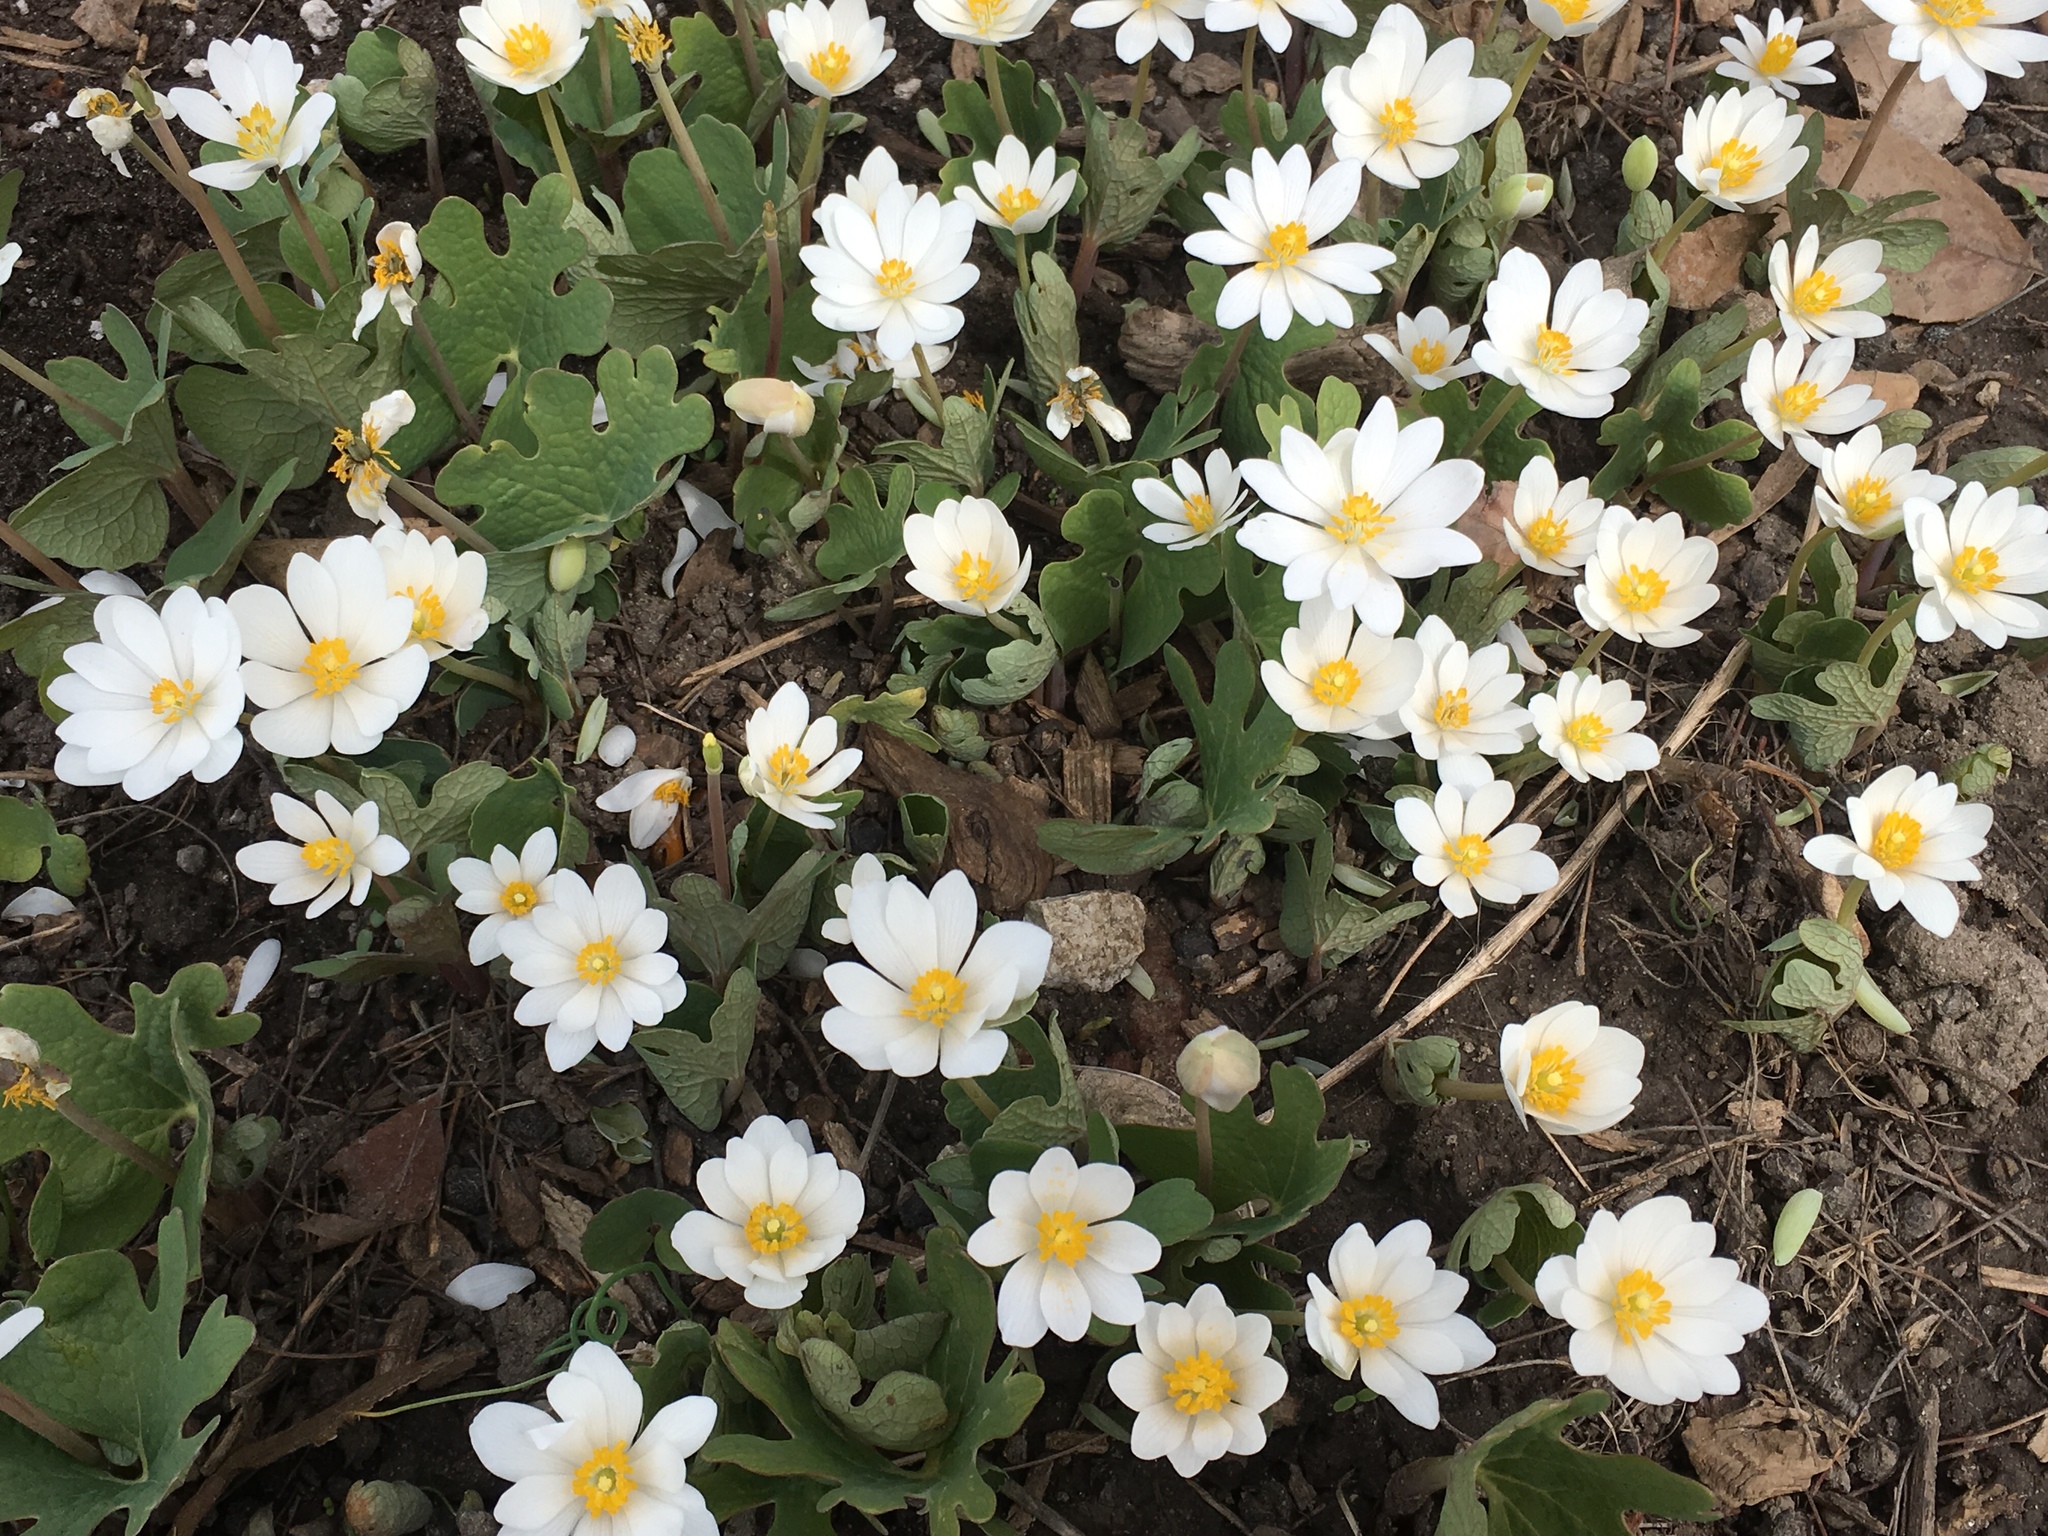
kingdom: Plantae
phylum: Tracheophyta
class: Magnoliopsida
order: Ranunculales
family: Papaveraceae
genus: Sanguinaria
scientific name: Sanguinaria canadensis
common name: Bloodroot
